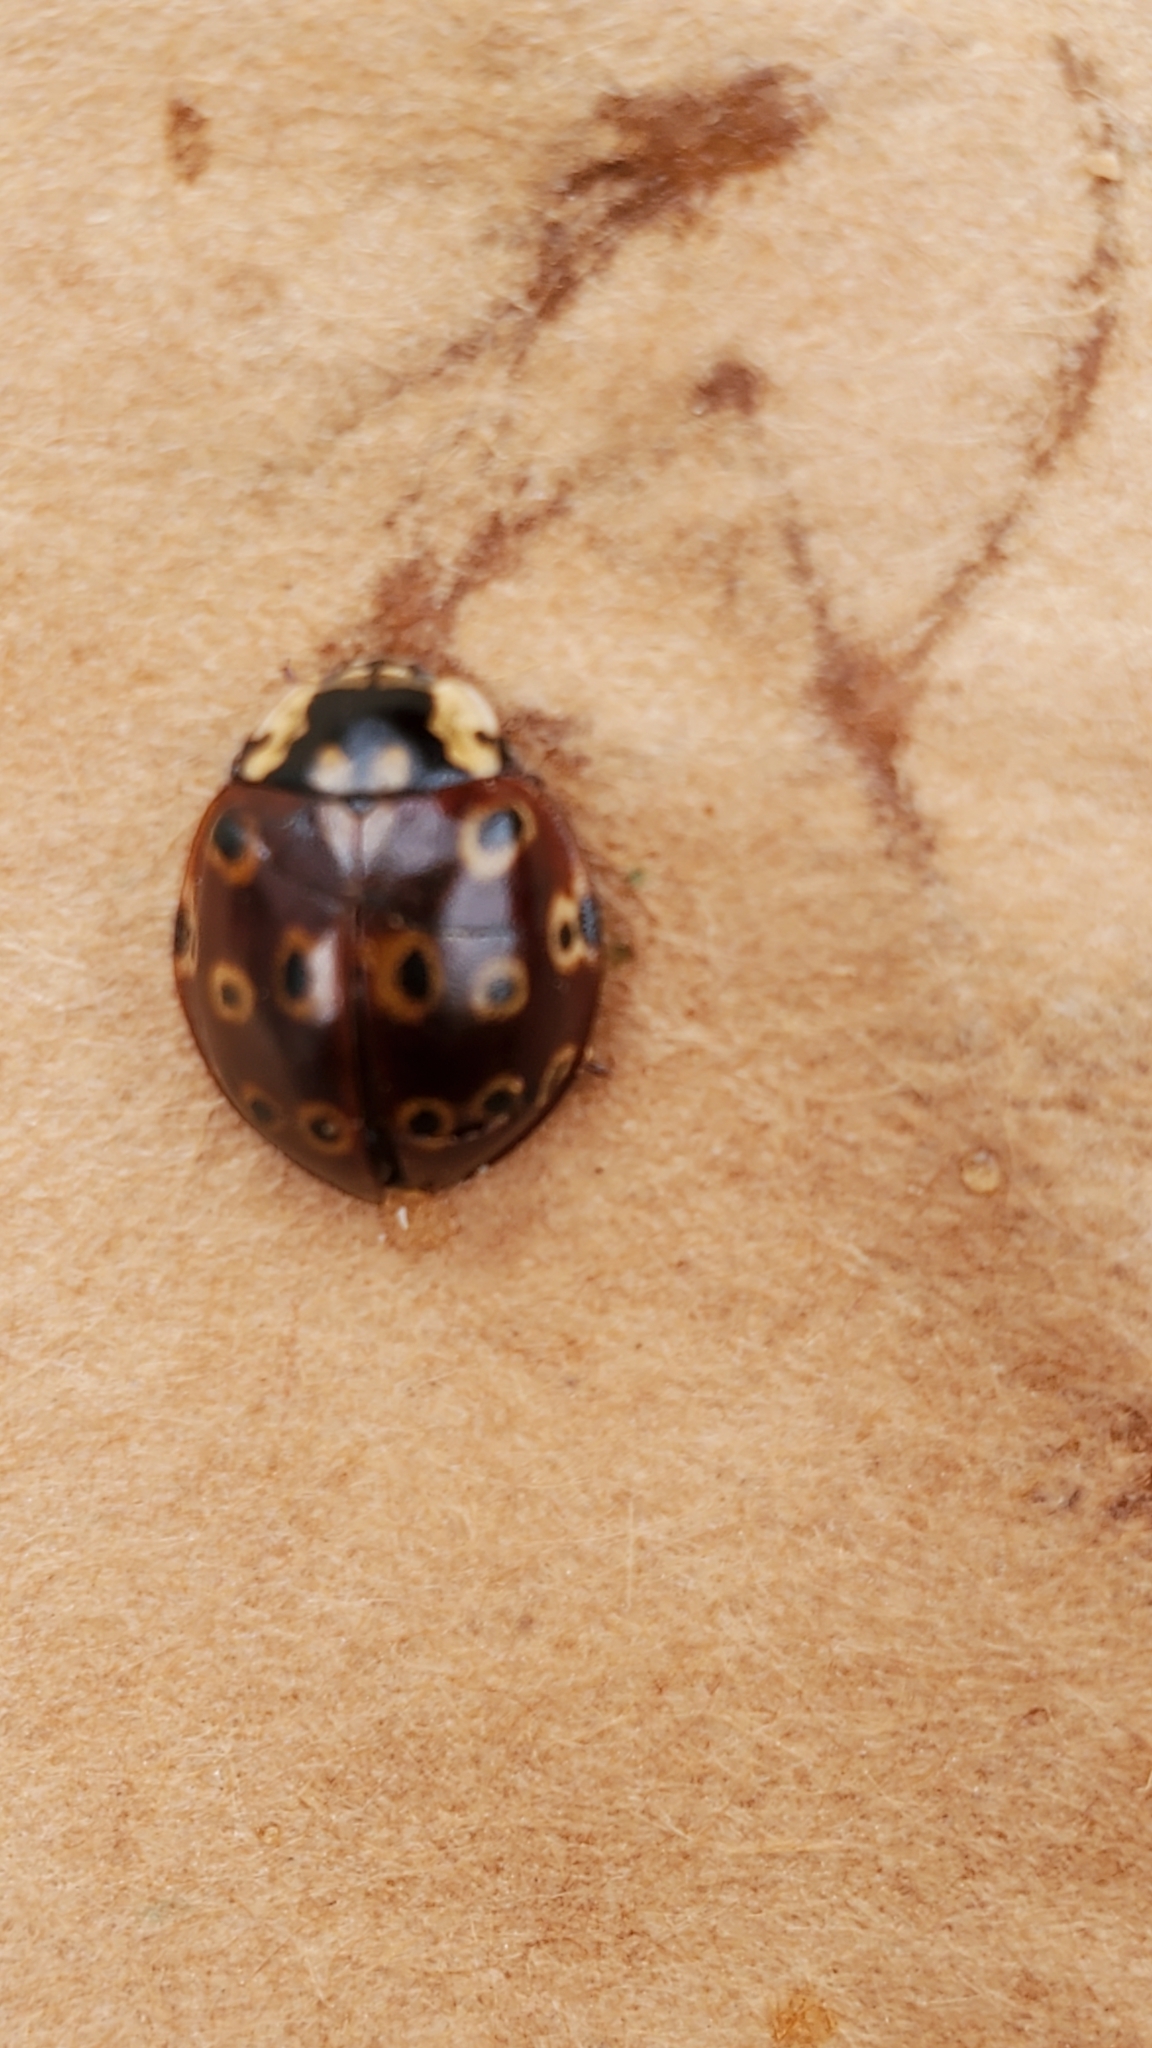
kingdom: Animalia
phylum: Arthropoda
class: Insecta
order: Coleoptera
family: Coccinellidae
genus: Anatis
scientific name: Anatis mali
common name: Eye-spotted lady beetle
